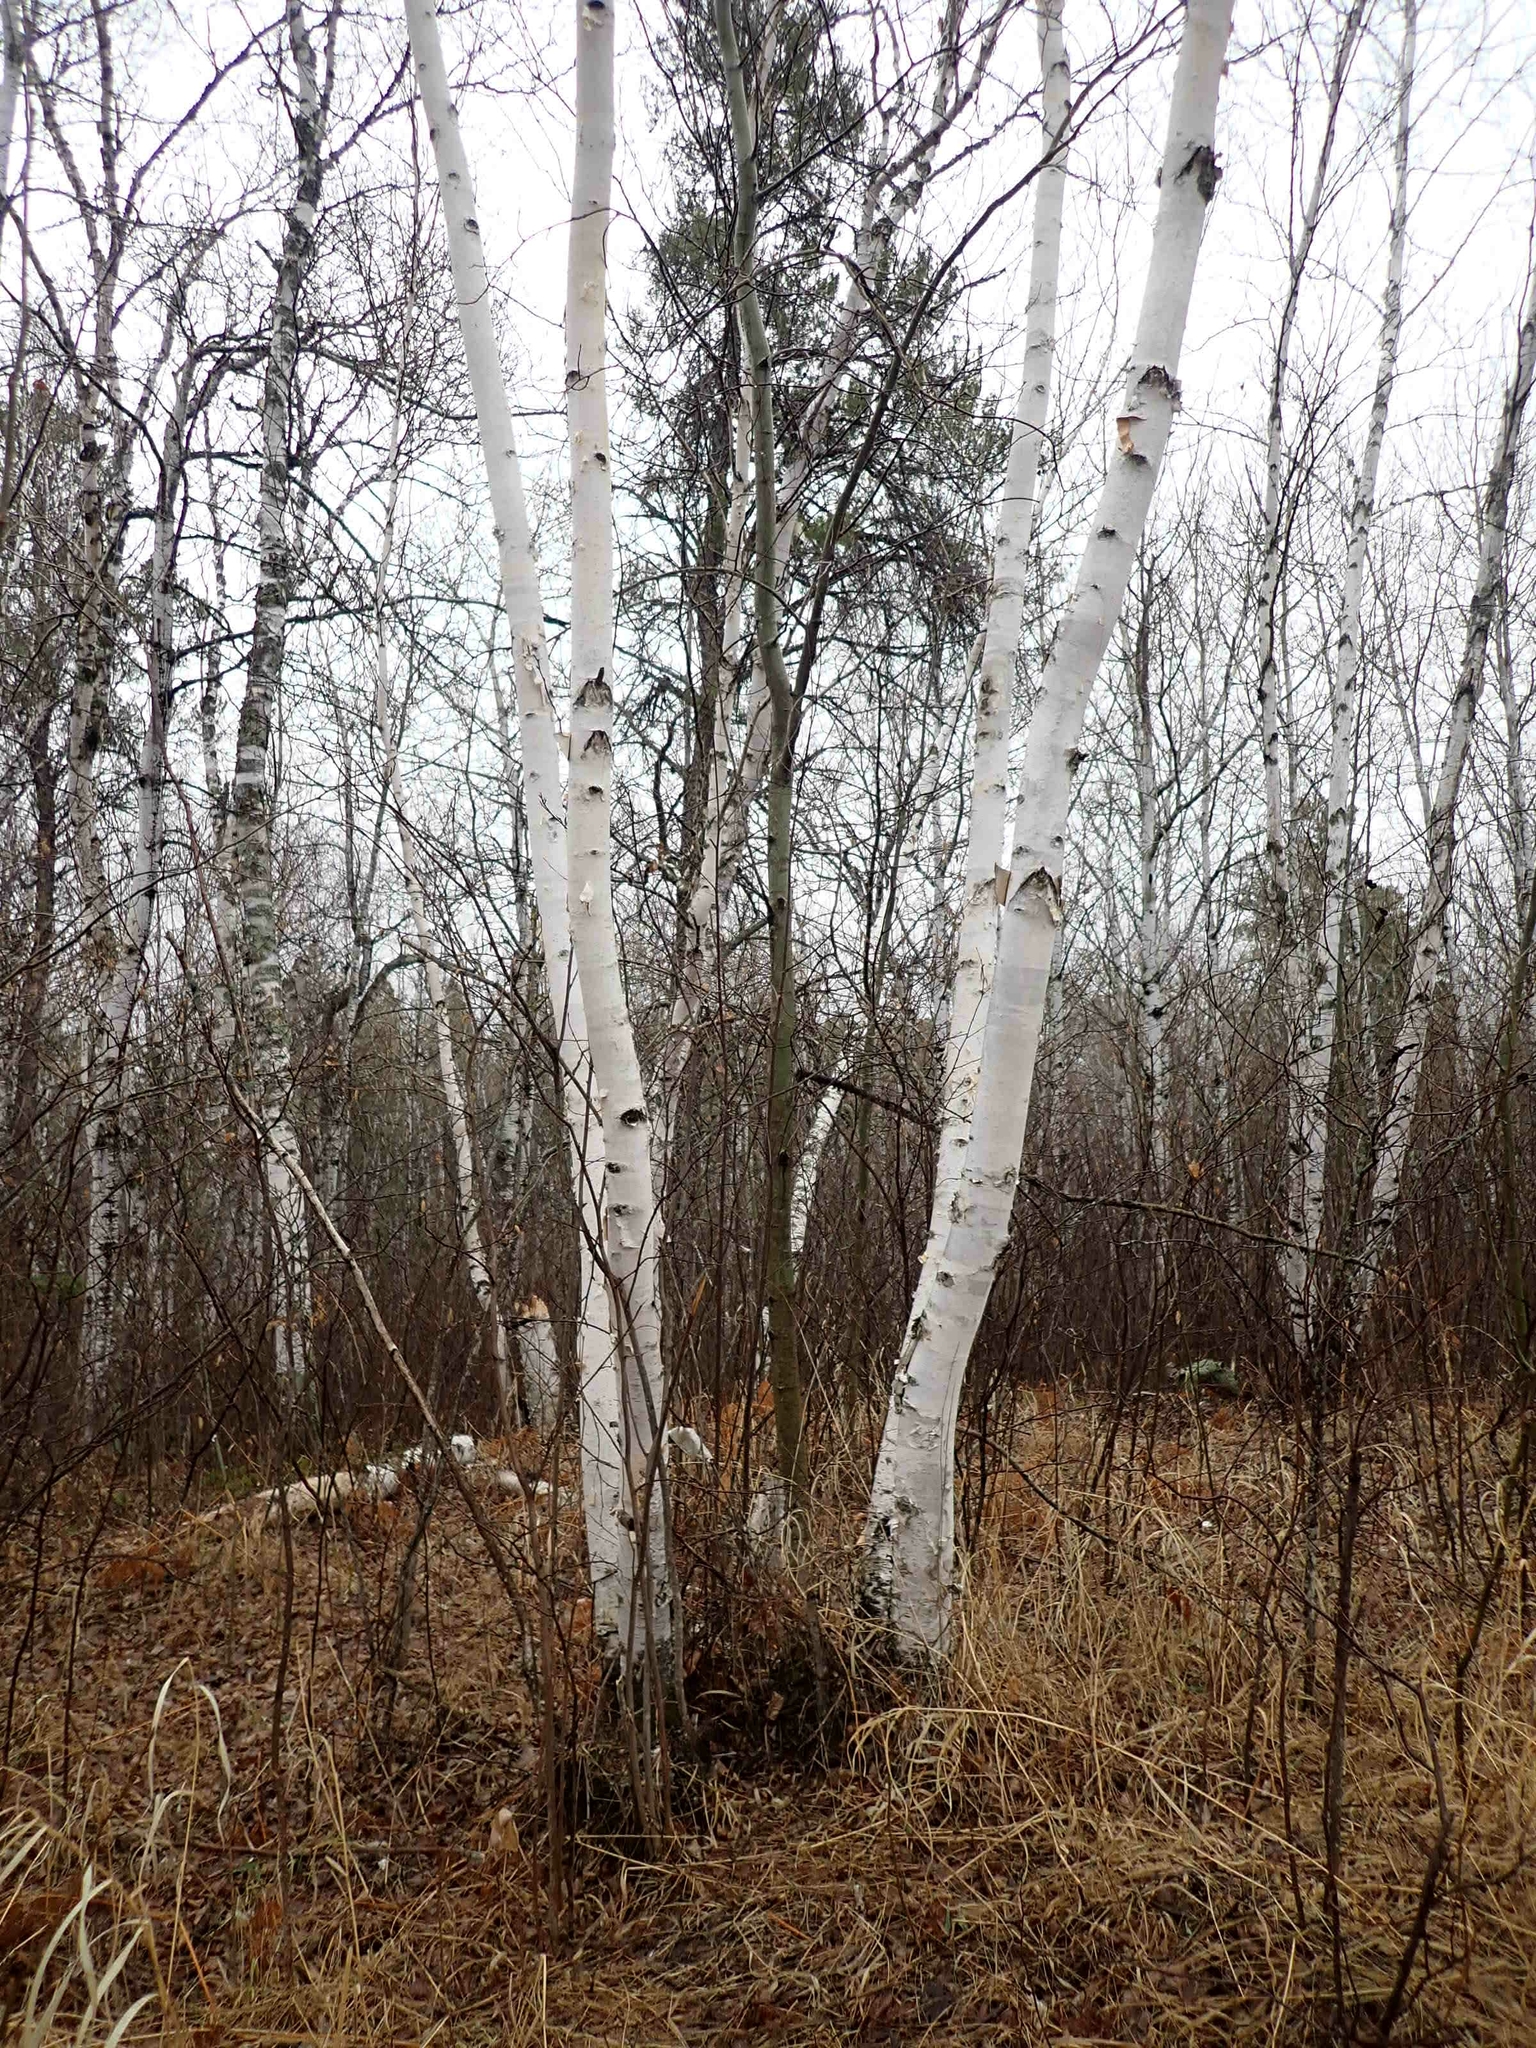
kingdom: Plantae
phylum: Tracheophyta
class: Magnoliopsida
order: Fagales
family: Betulaceae
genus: Betula
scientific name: Betula papyrifera
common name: Paper birch
